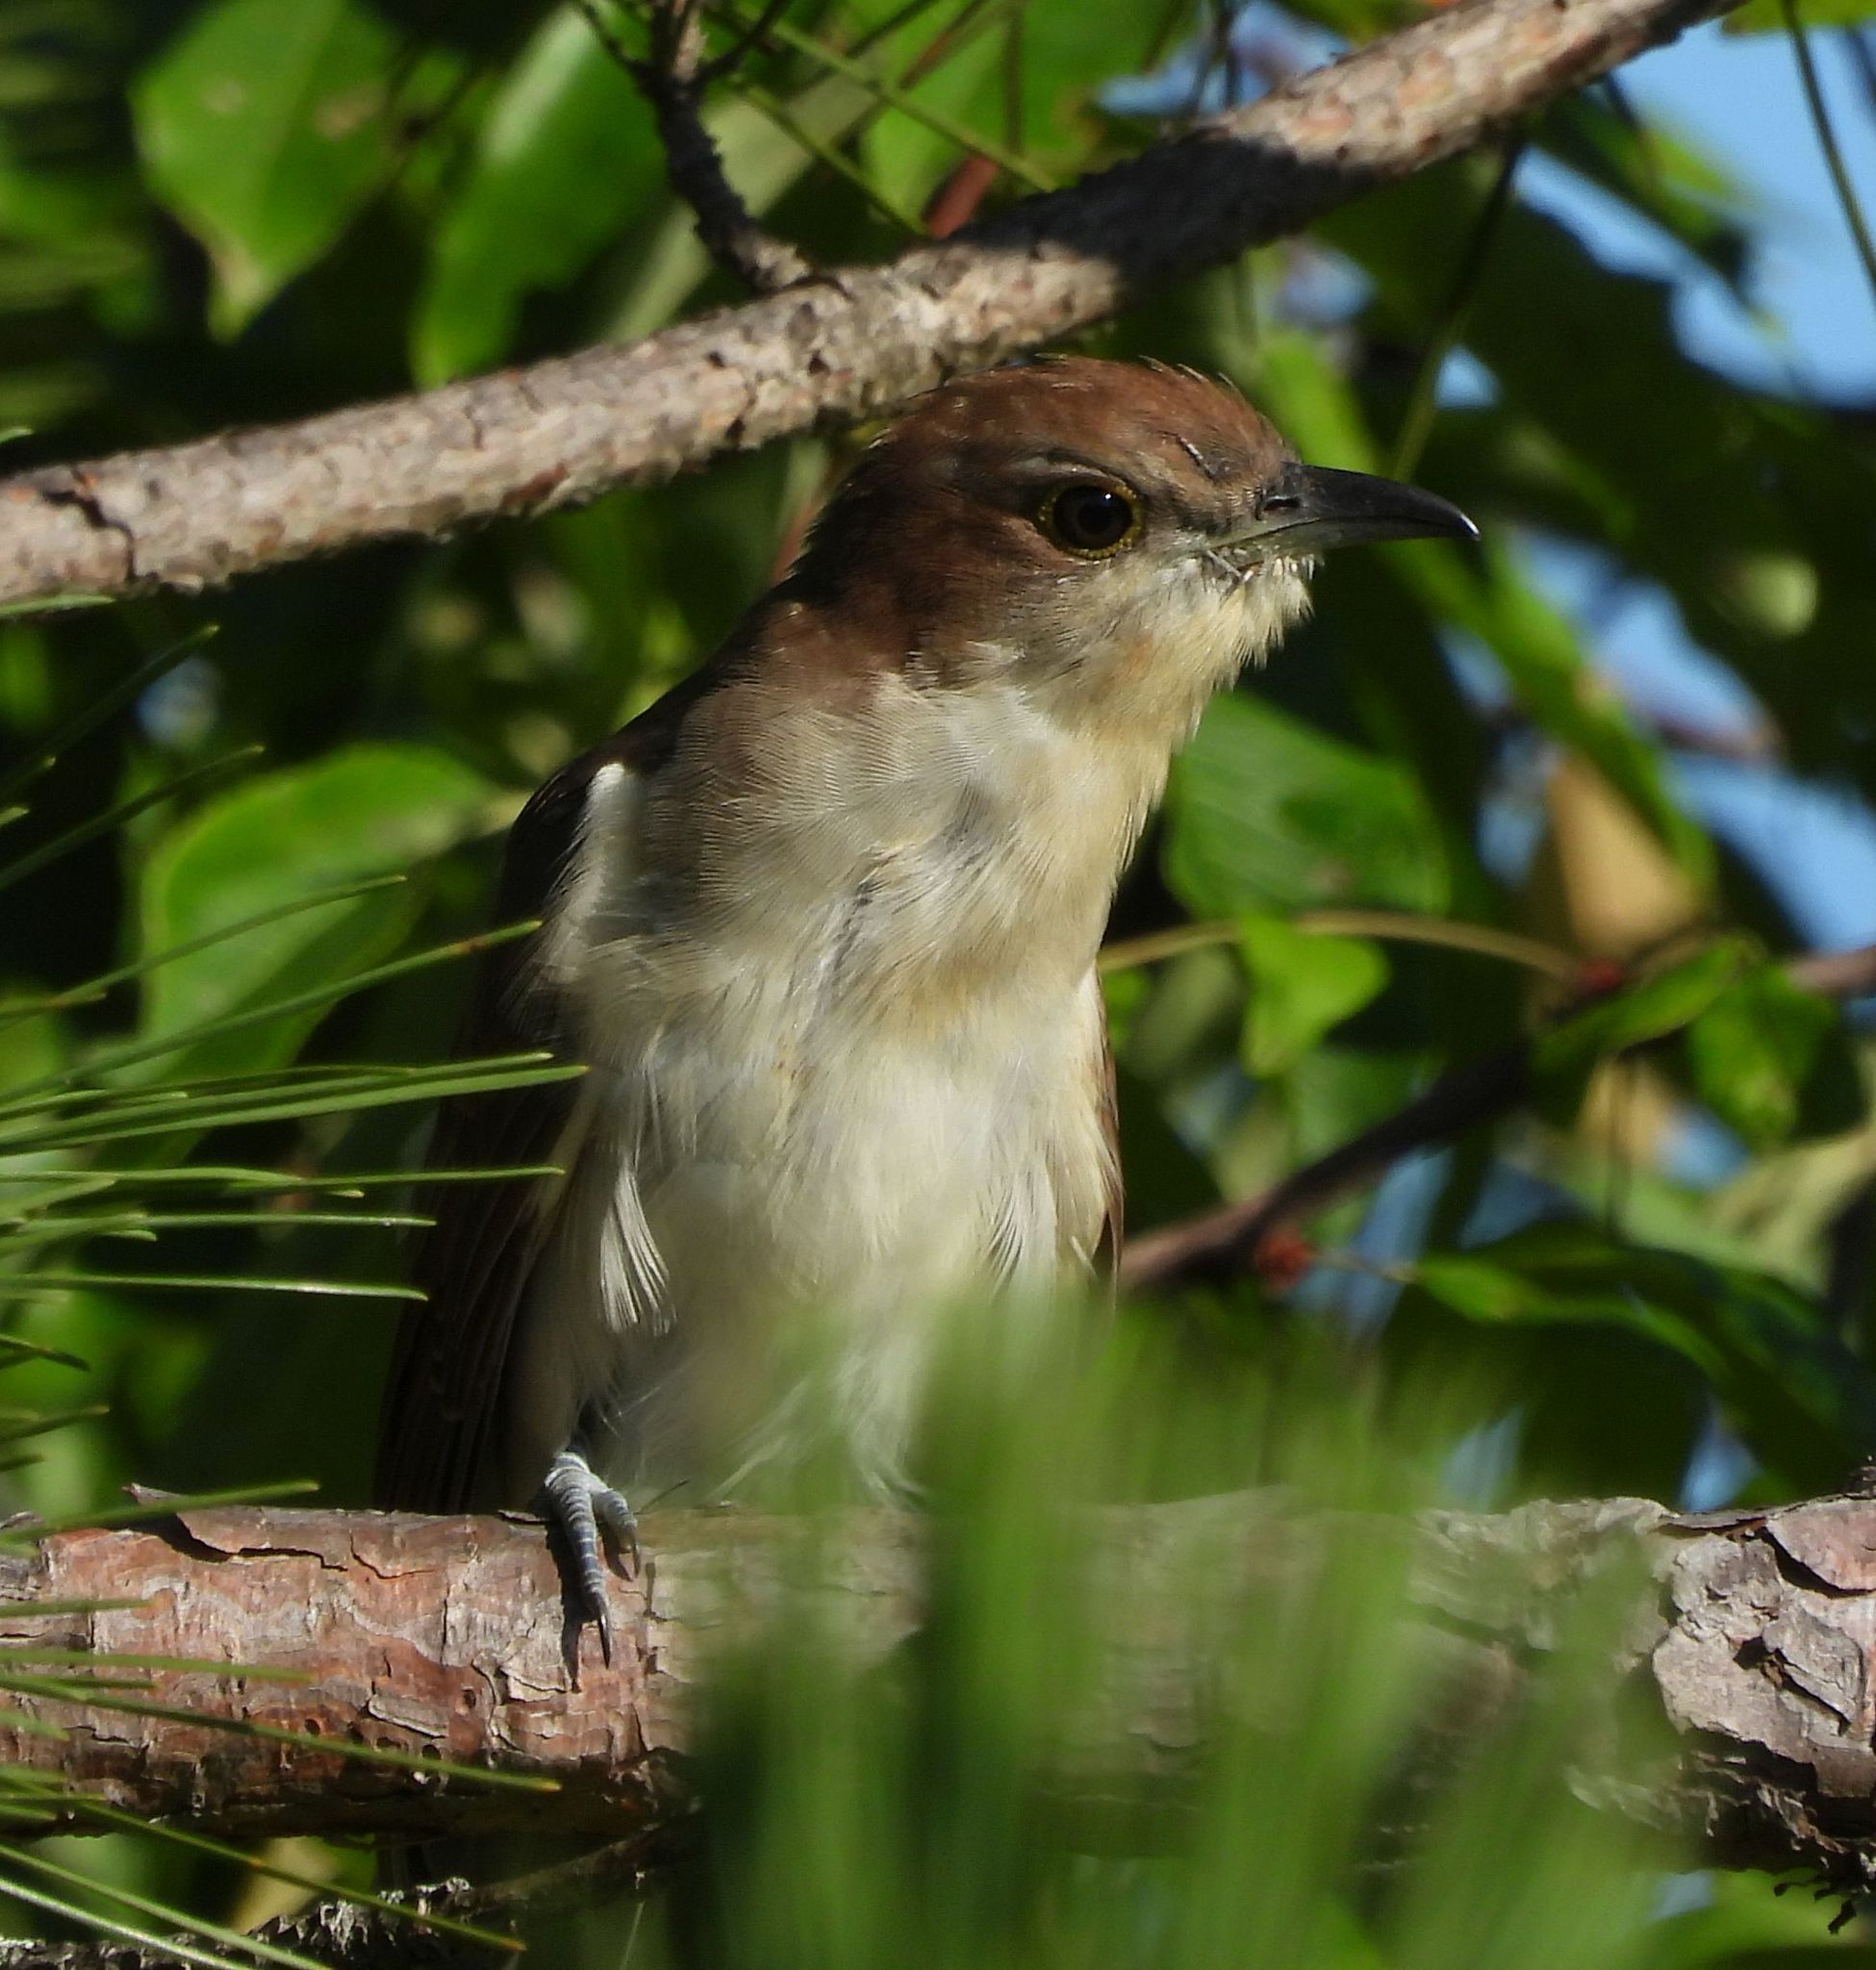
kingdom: Animalia
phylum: Chordata
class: Aves
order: Cuculiformes
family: Cuculidae
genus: Coccyzus
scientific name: Coccyzus erythropthalmus
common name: Black-billed cuckoo
